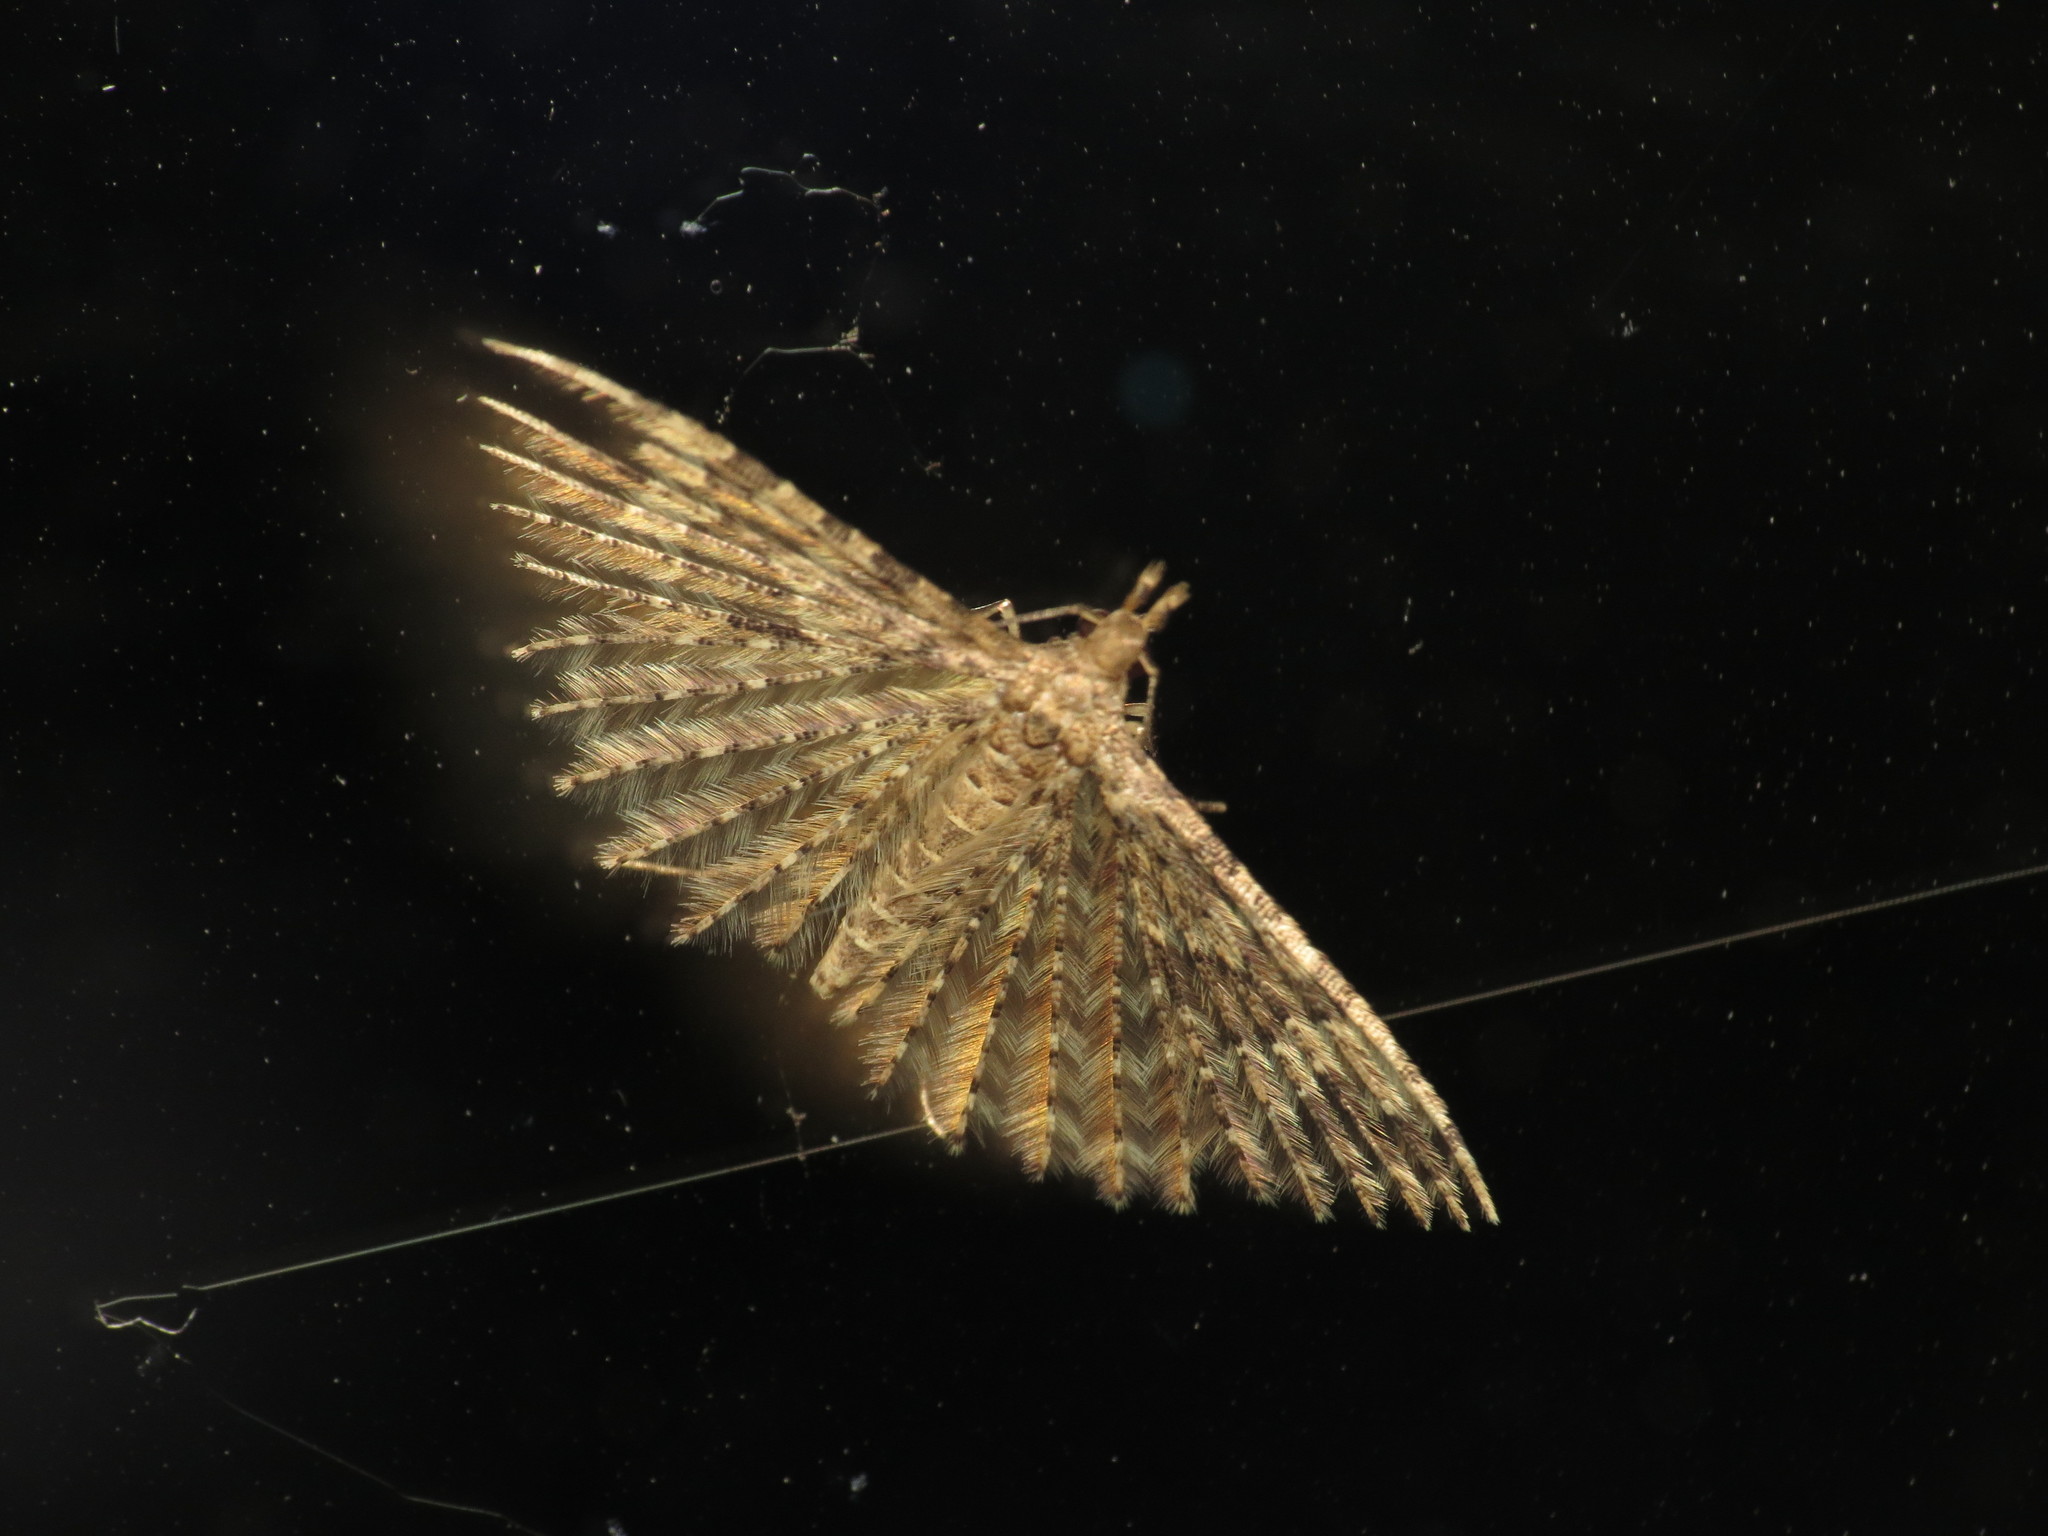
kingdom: Animalia
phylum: Arthropoda
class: Insecta
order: Lepidoptera
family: Alucitidae
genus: Alucita
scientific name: Alucita hexadactyla
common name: Twenty-plume moth
